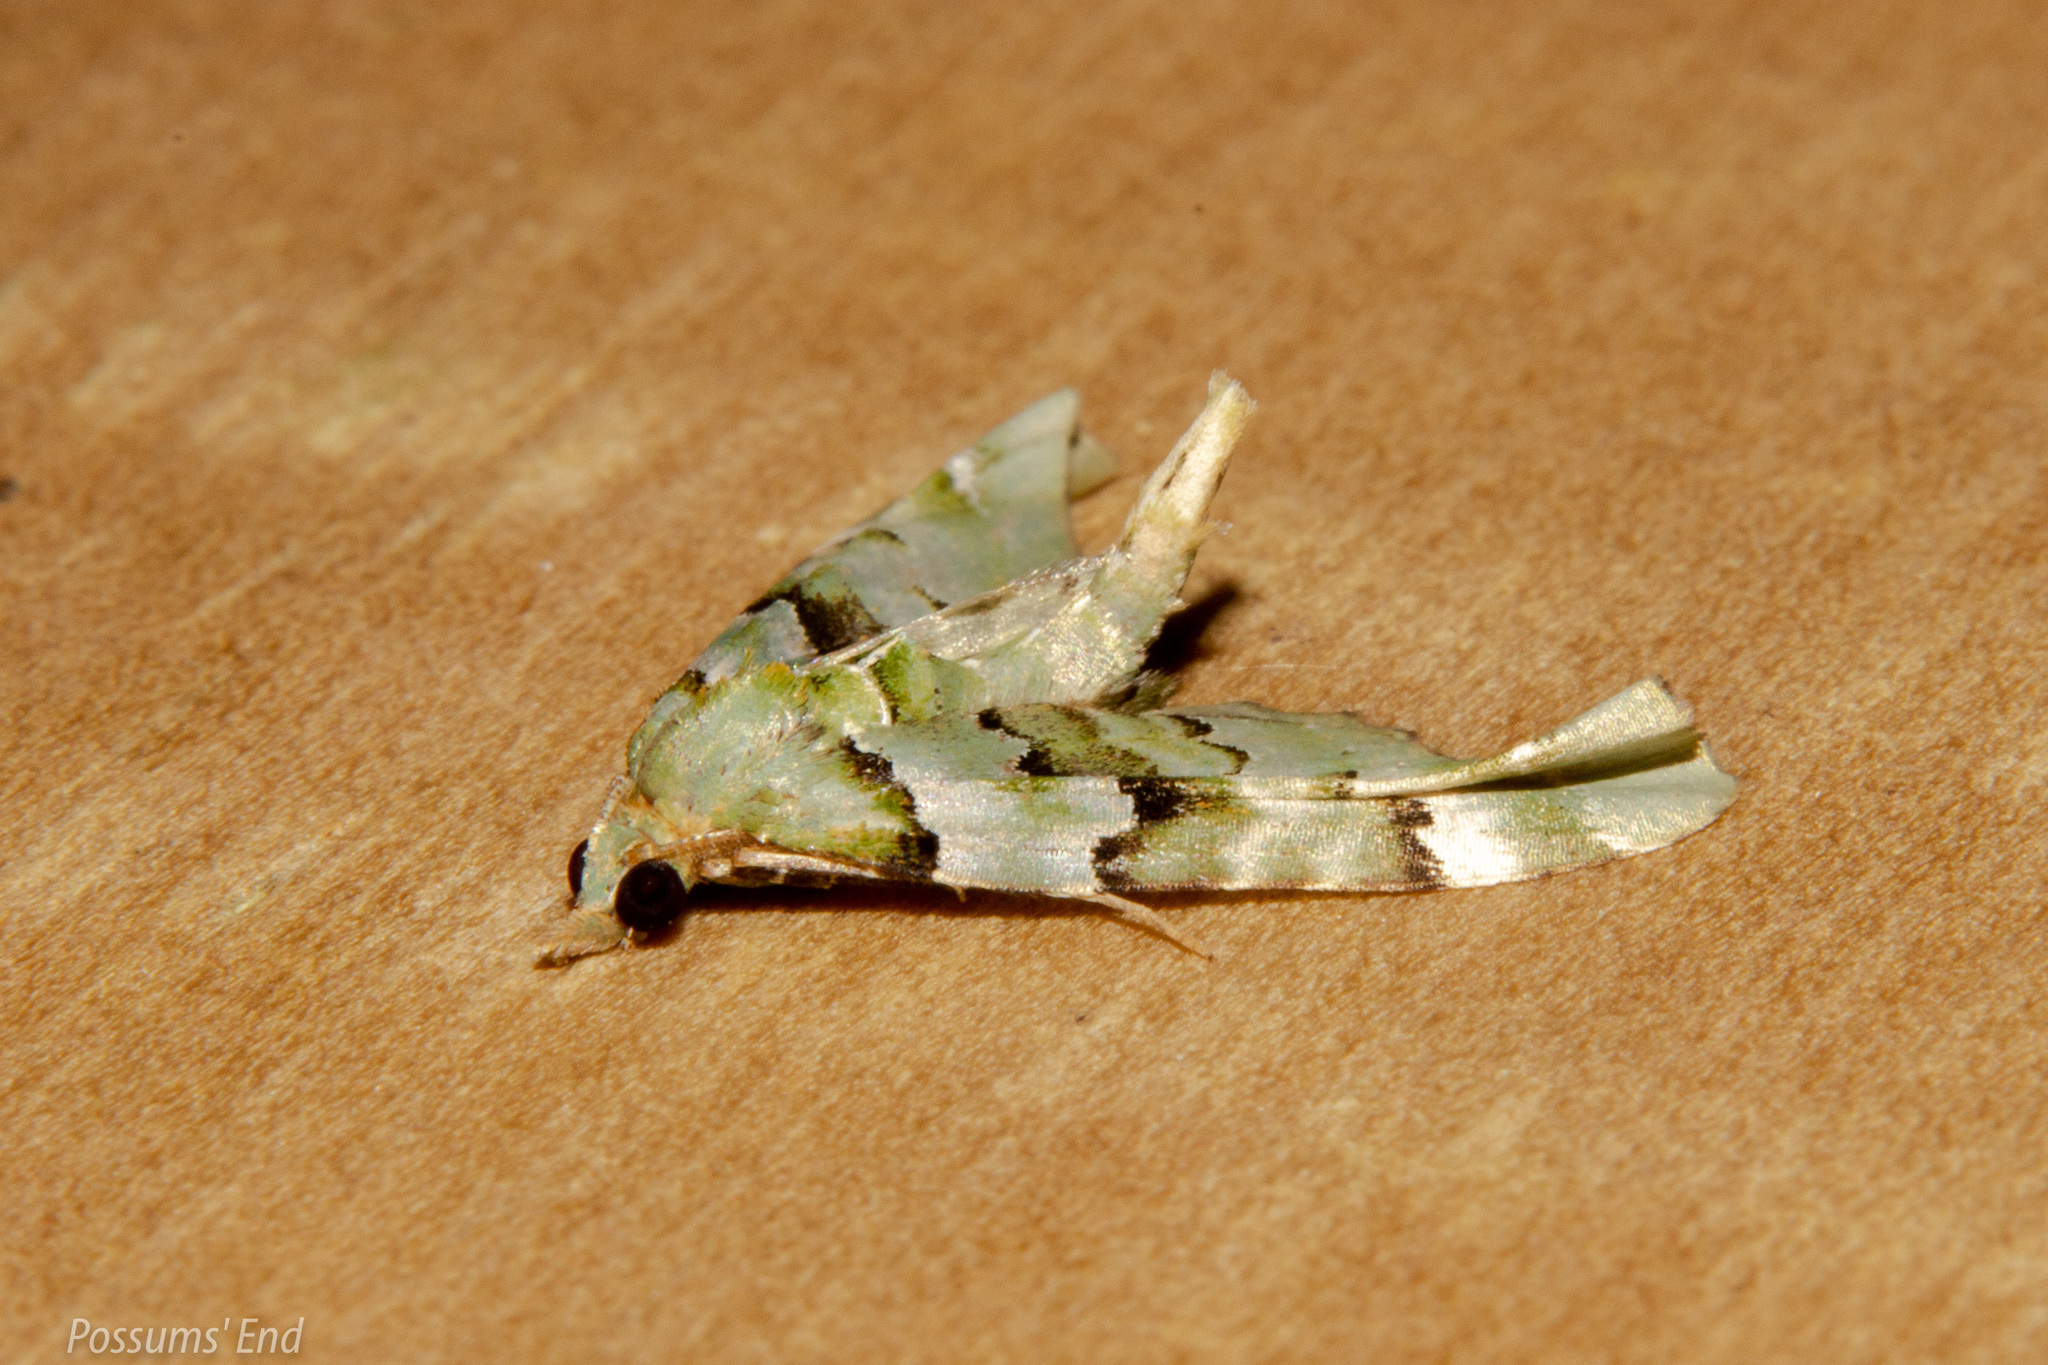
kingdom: Animalia
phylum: Arthropoda
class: Insecta
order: Lepidoptera
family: Geometridae
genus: Elvia
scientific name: Elvia glaucata
